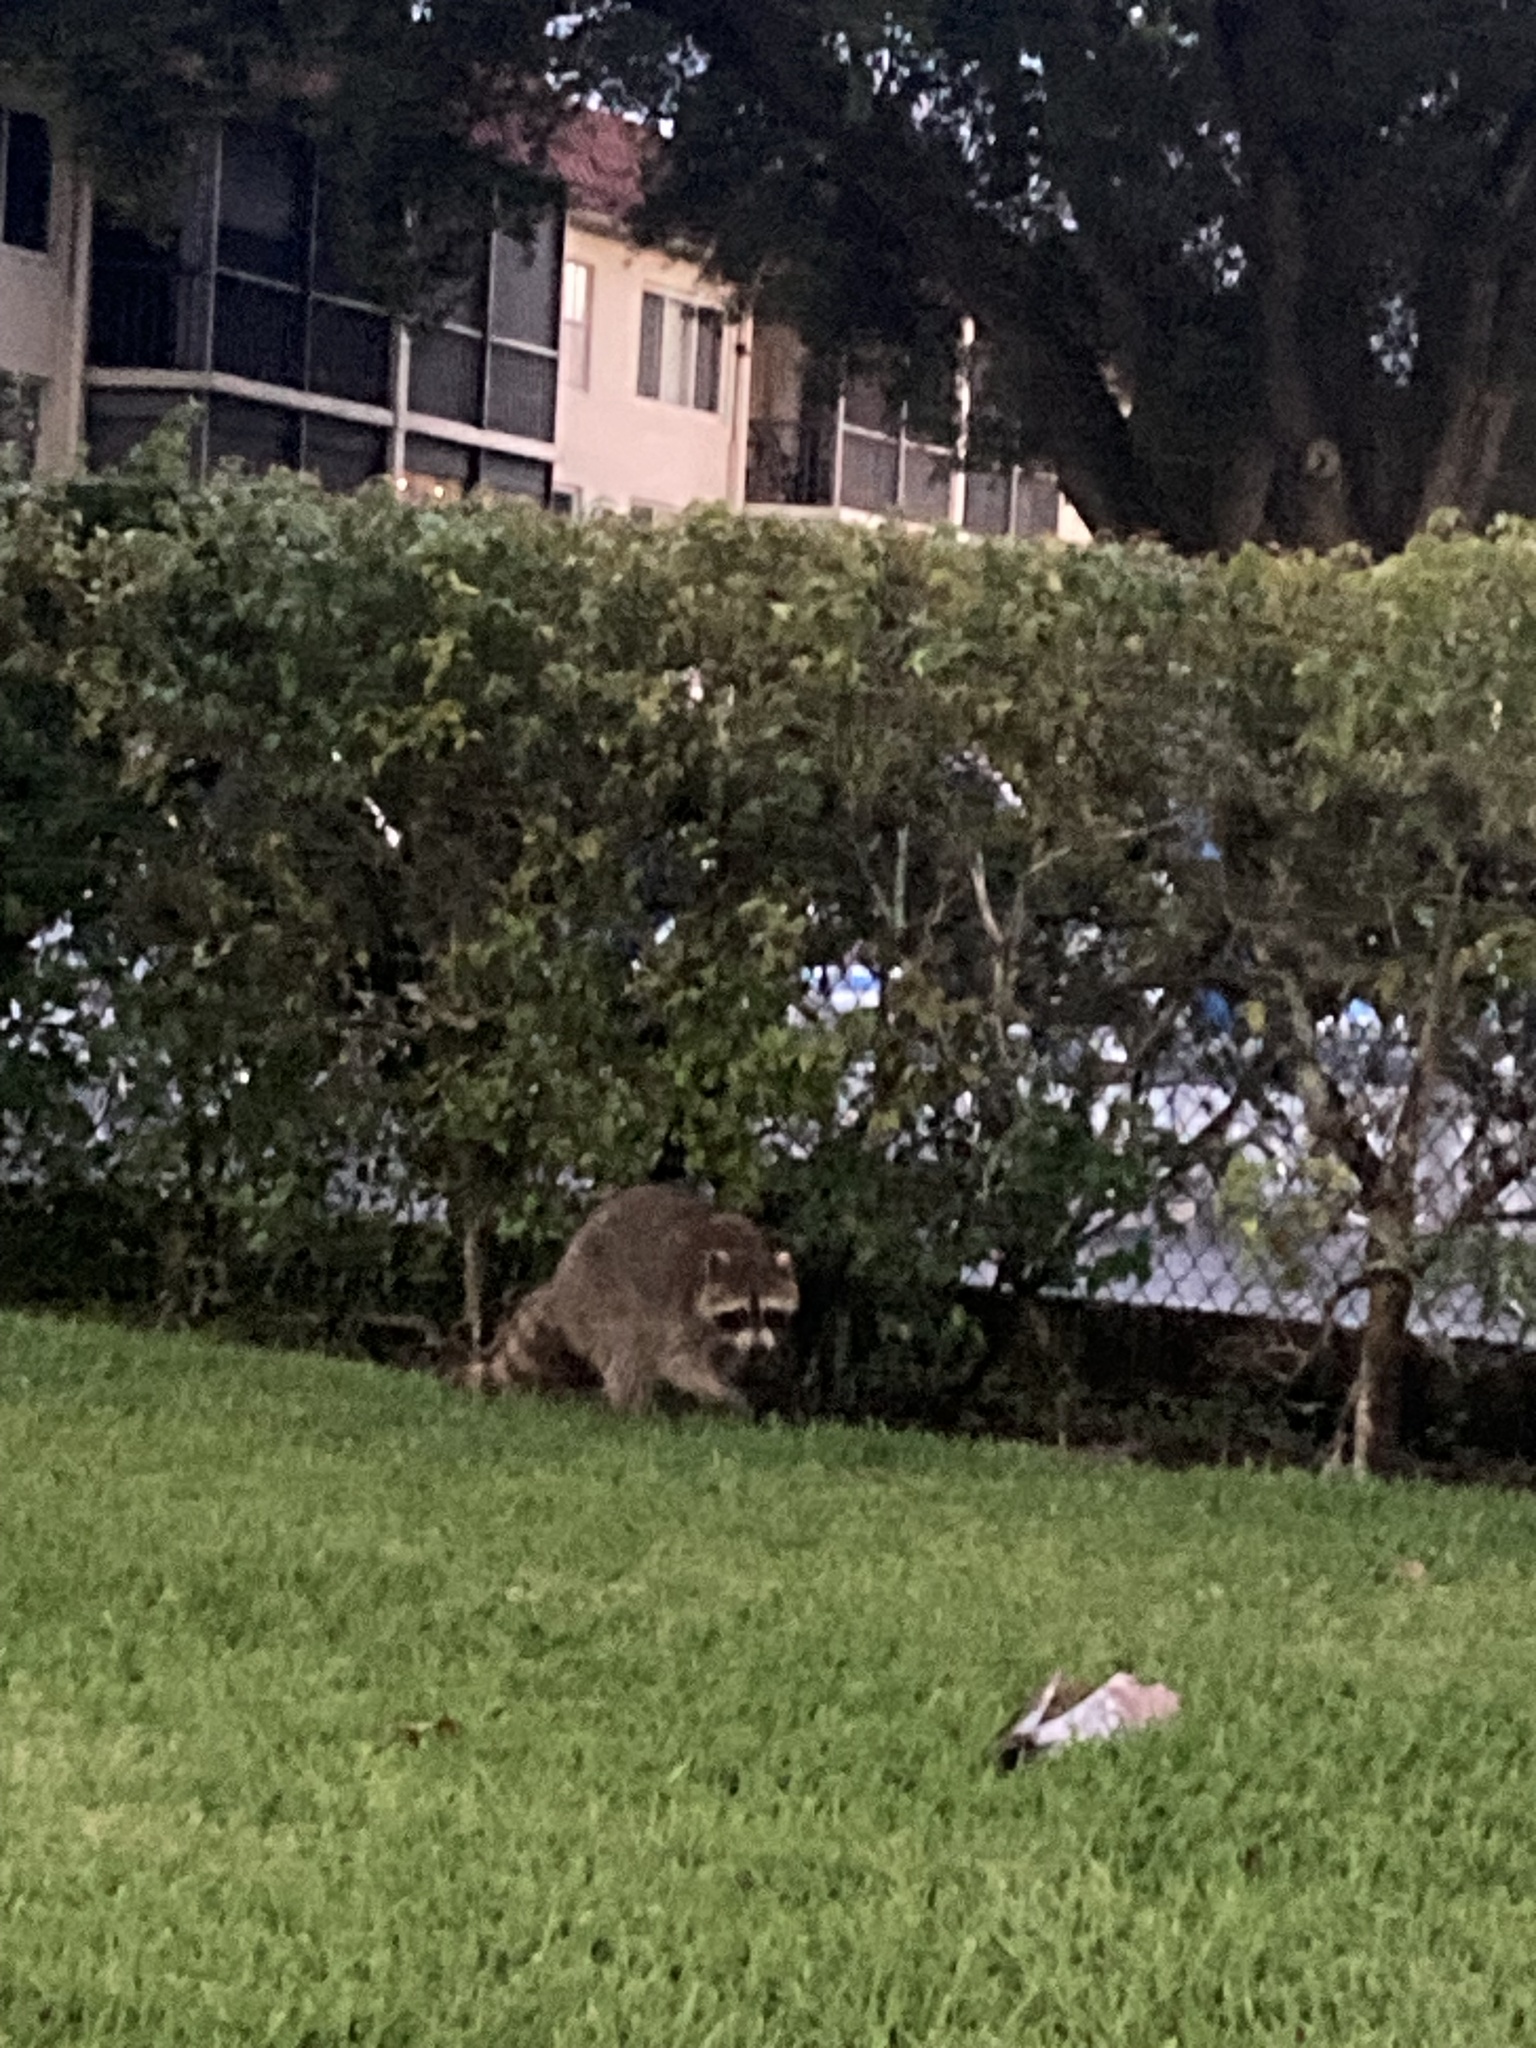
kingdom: Animalia
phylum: Chordata
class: Mammalia
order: Carnivora
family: Procyonidae
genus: Procyon
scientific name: Procyon lotor
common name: Raccoon
